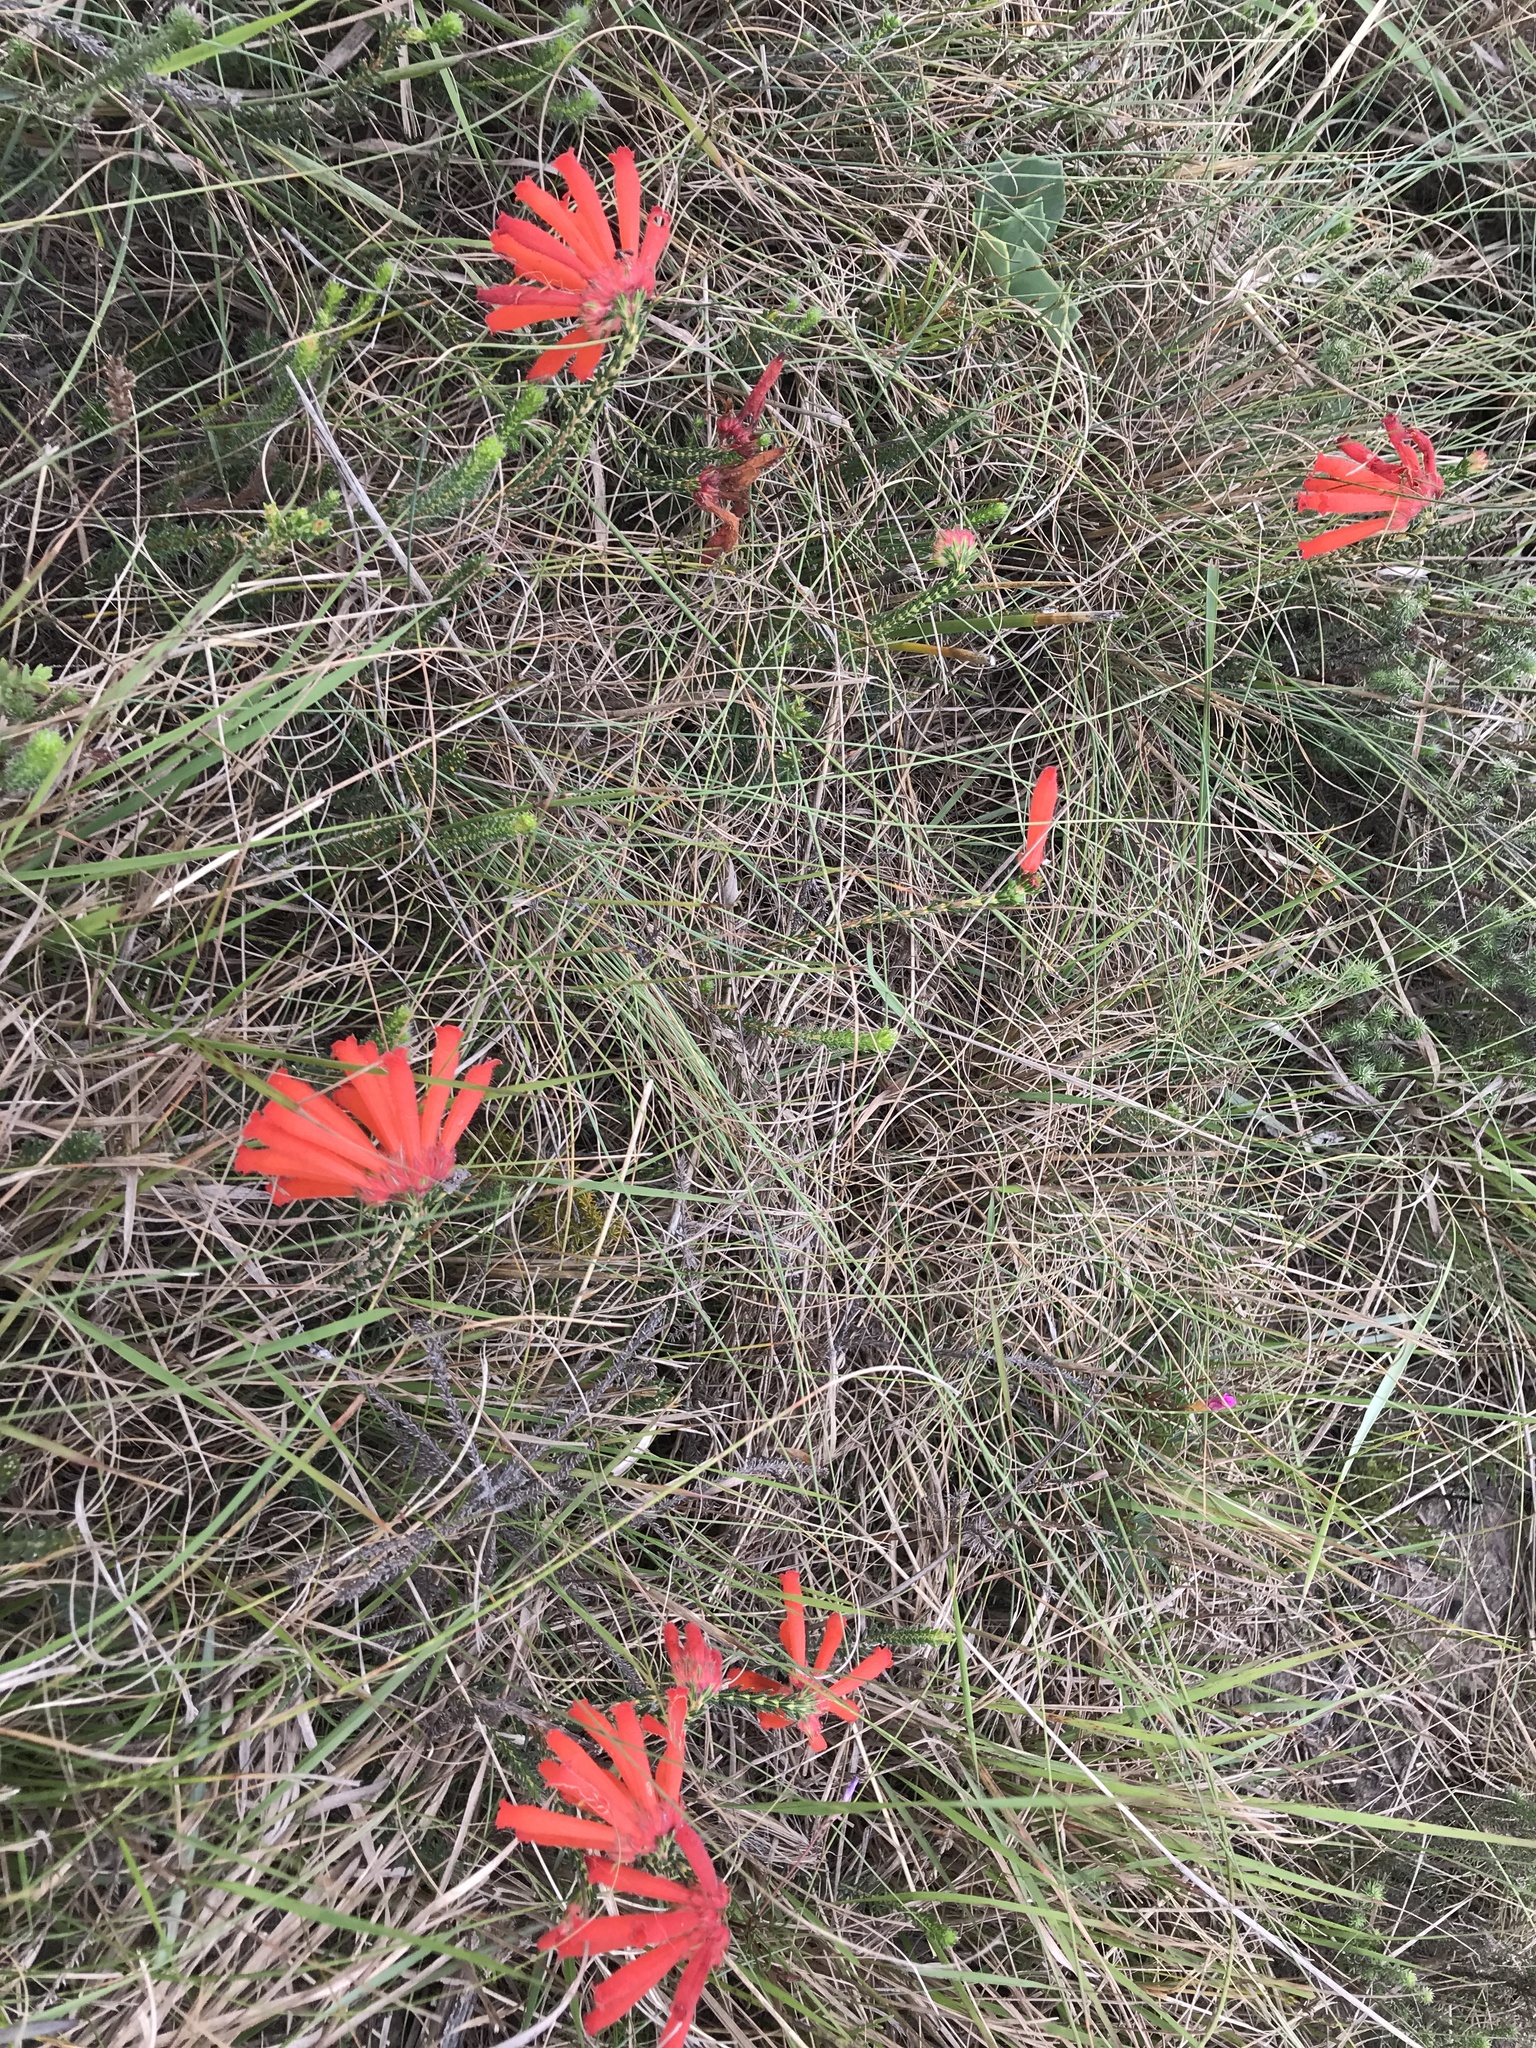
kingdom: Plantae
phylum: Tracheophyta
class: Magnoliopsida
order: Ericales
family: Ericaceae
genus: Erica
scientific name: Erica cerinthoides
